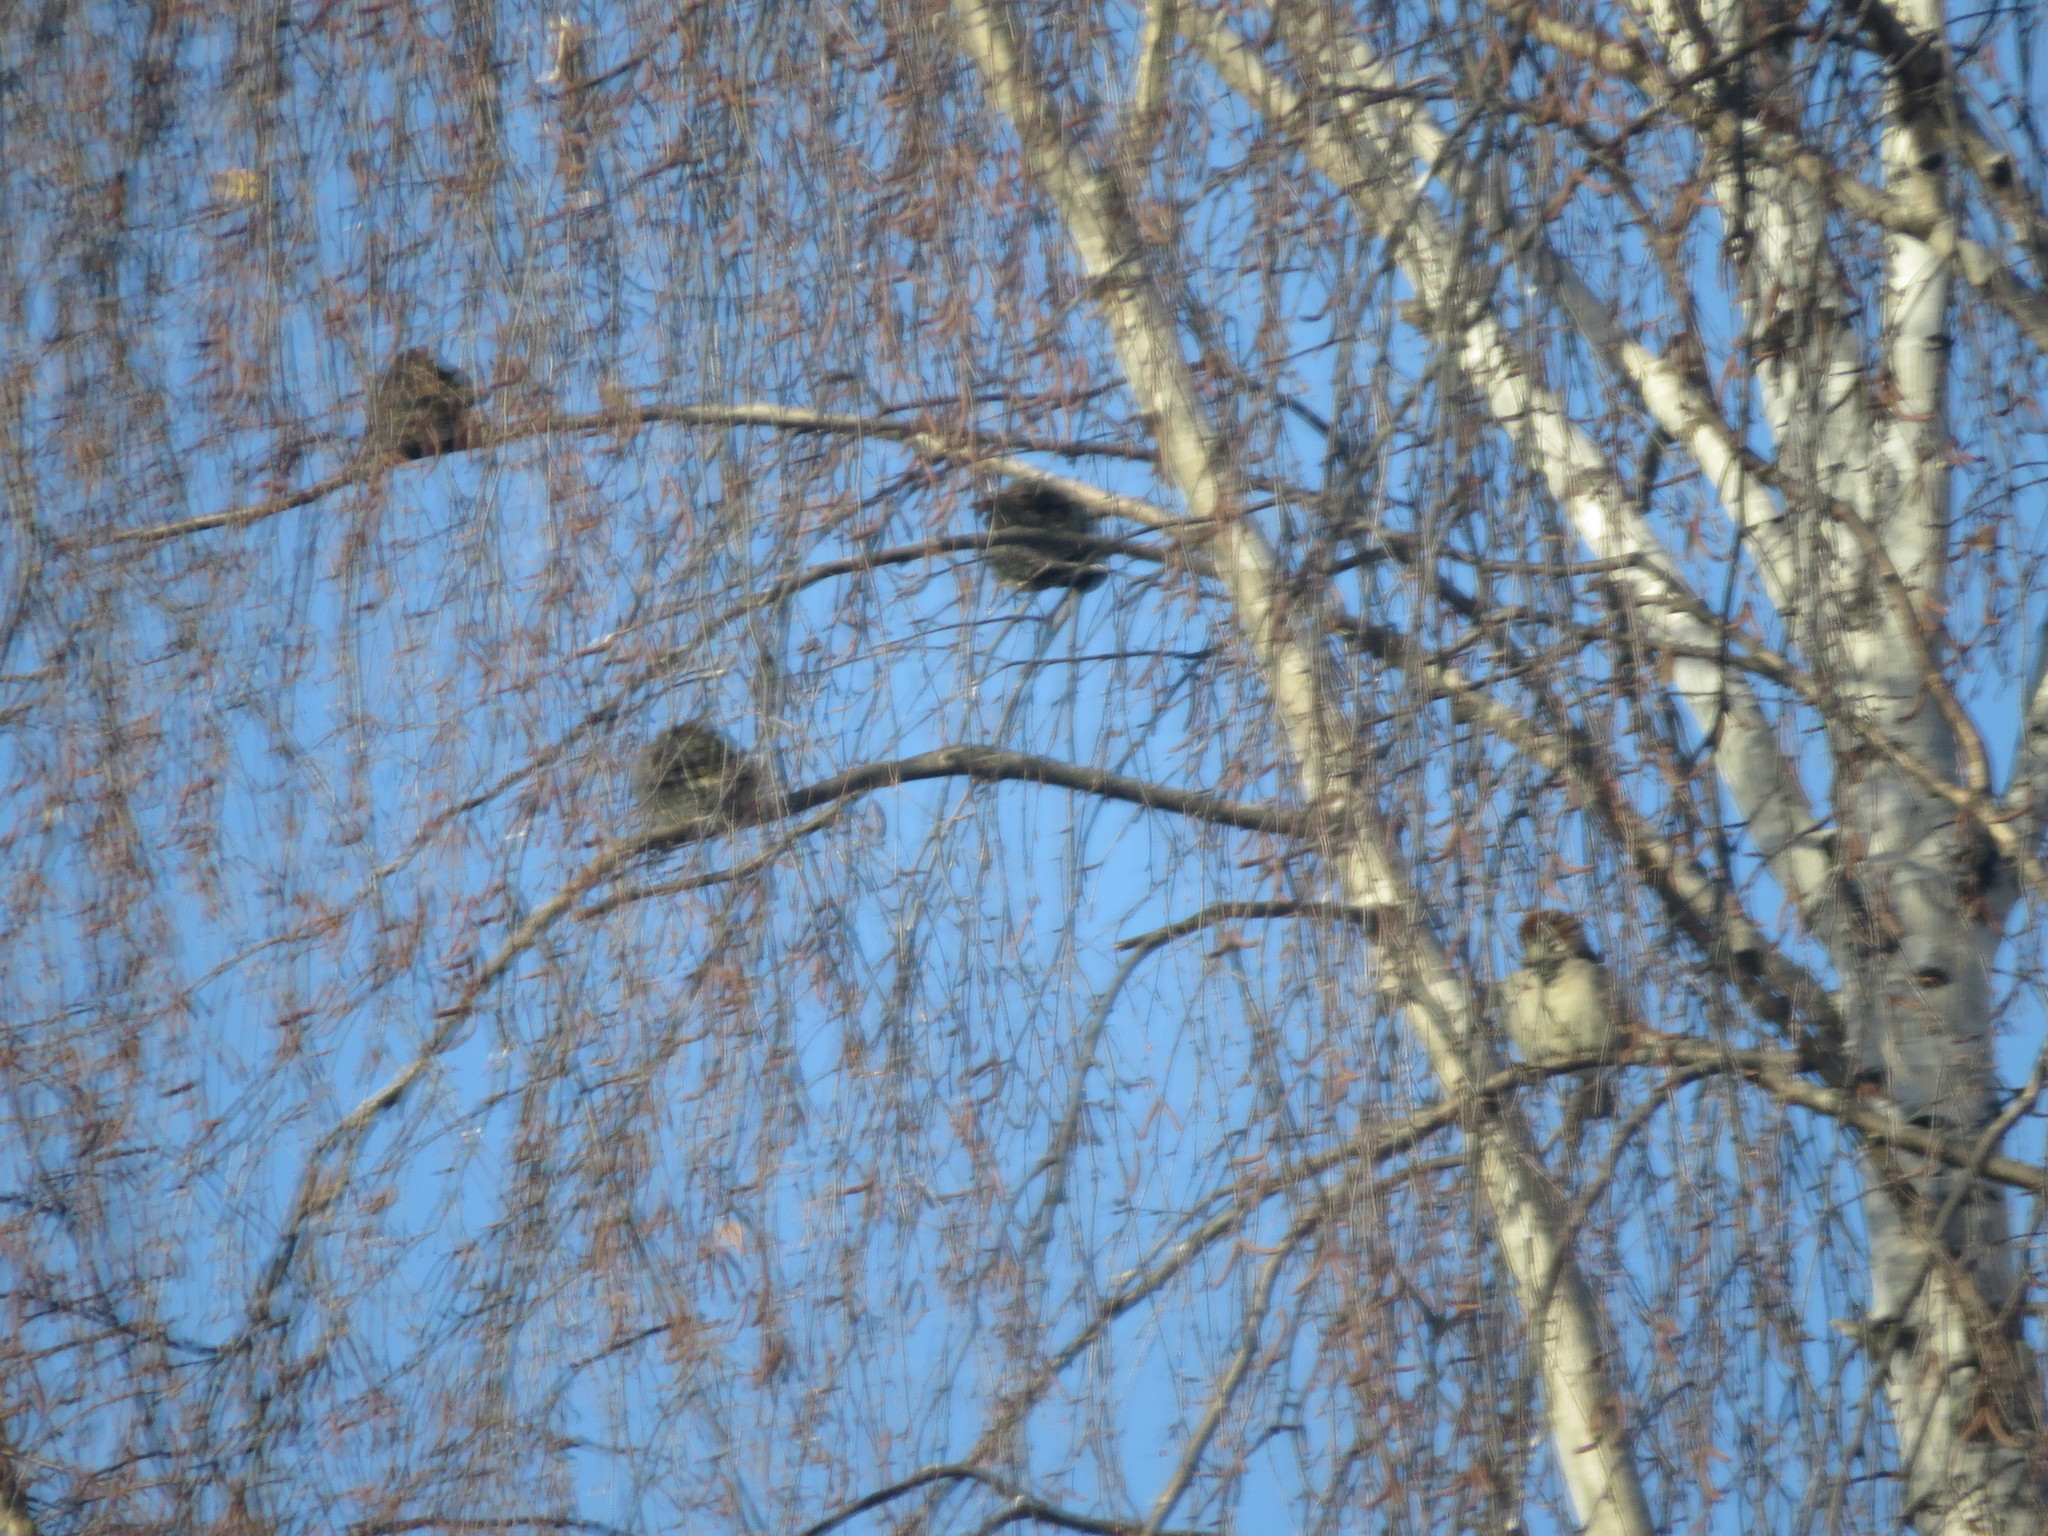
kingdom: Animalia
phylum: Chordata
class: Aves
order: Passeriformes
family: Passeridae
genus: Passer
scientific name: Passer domesticus
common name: House sparrow
